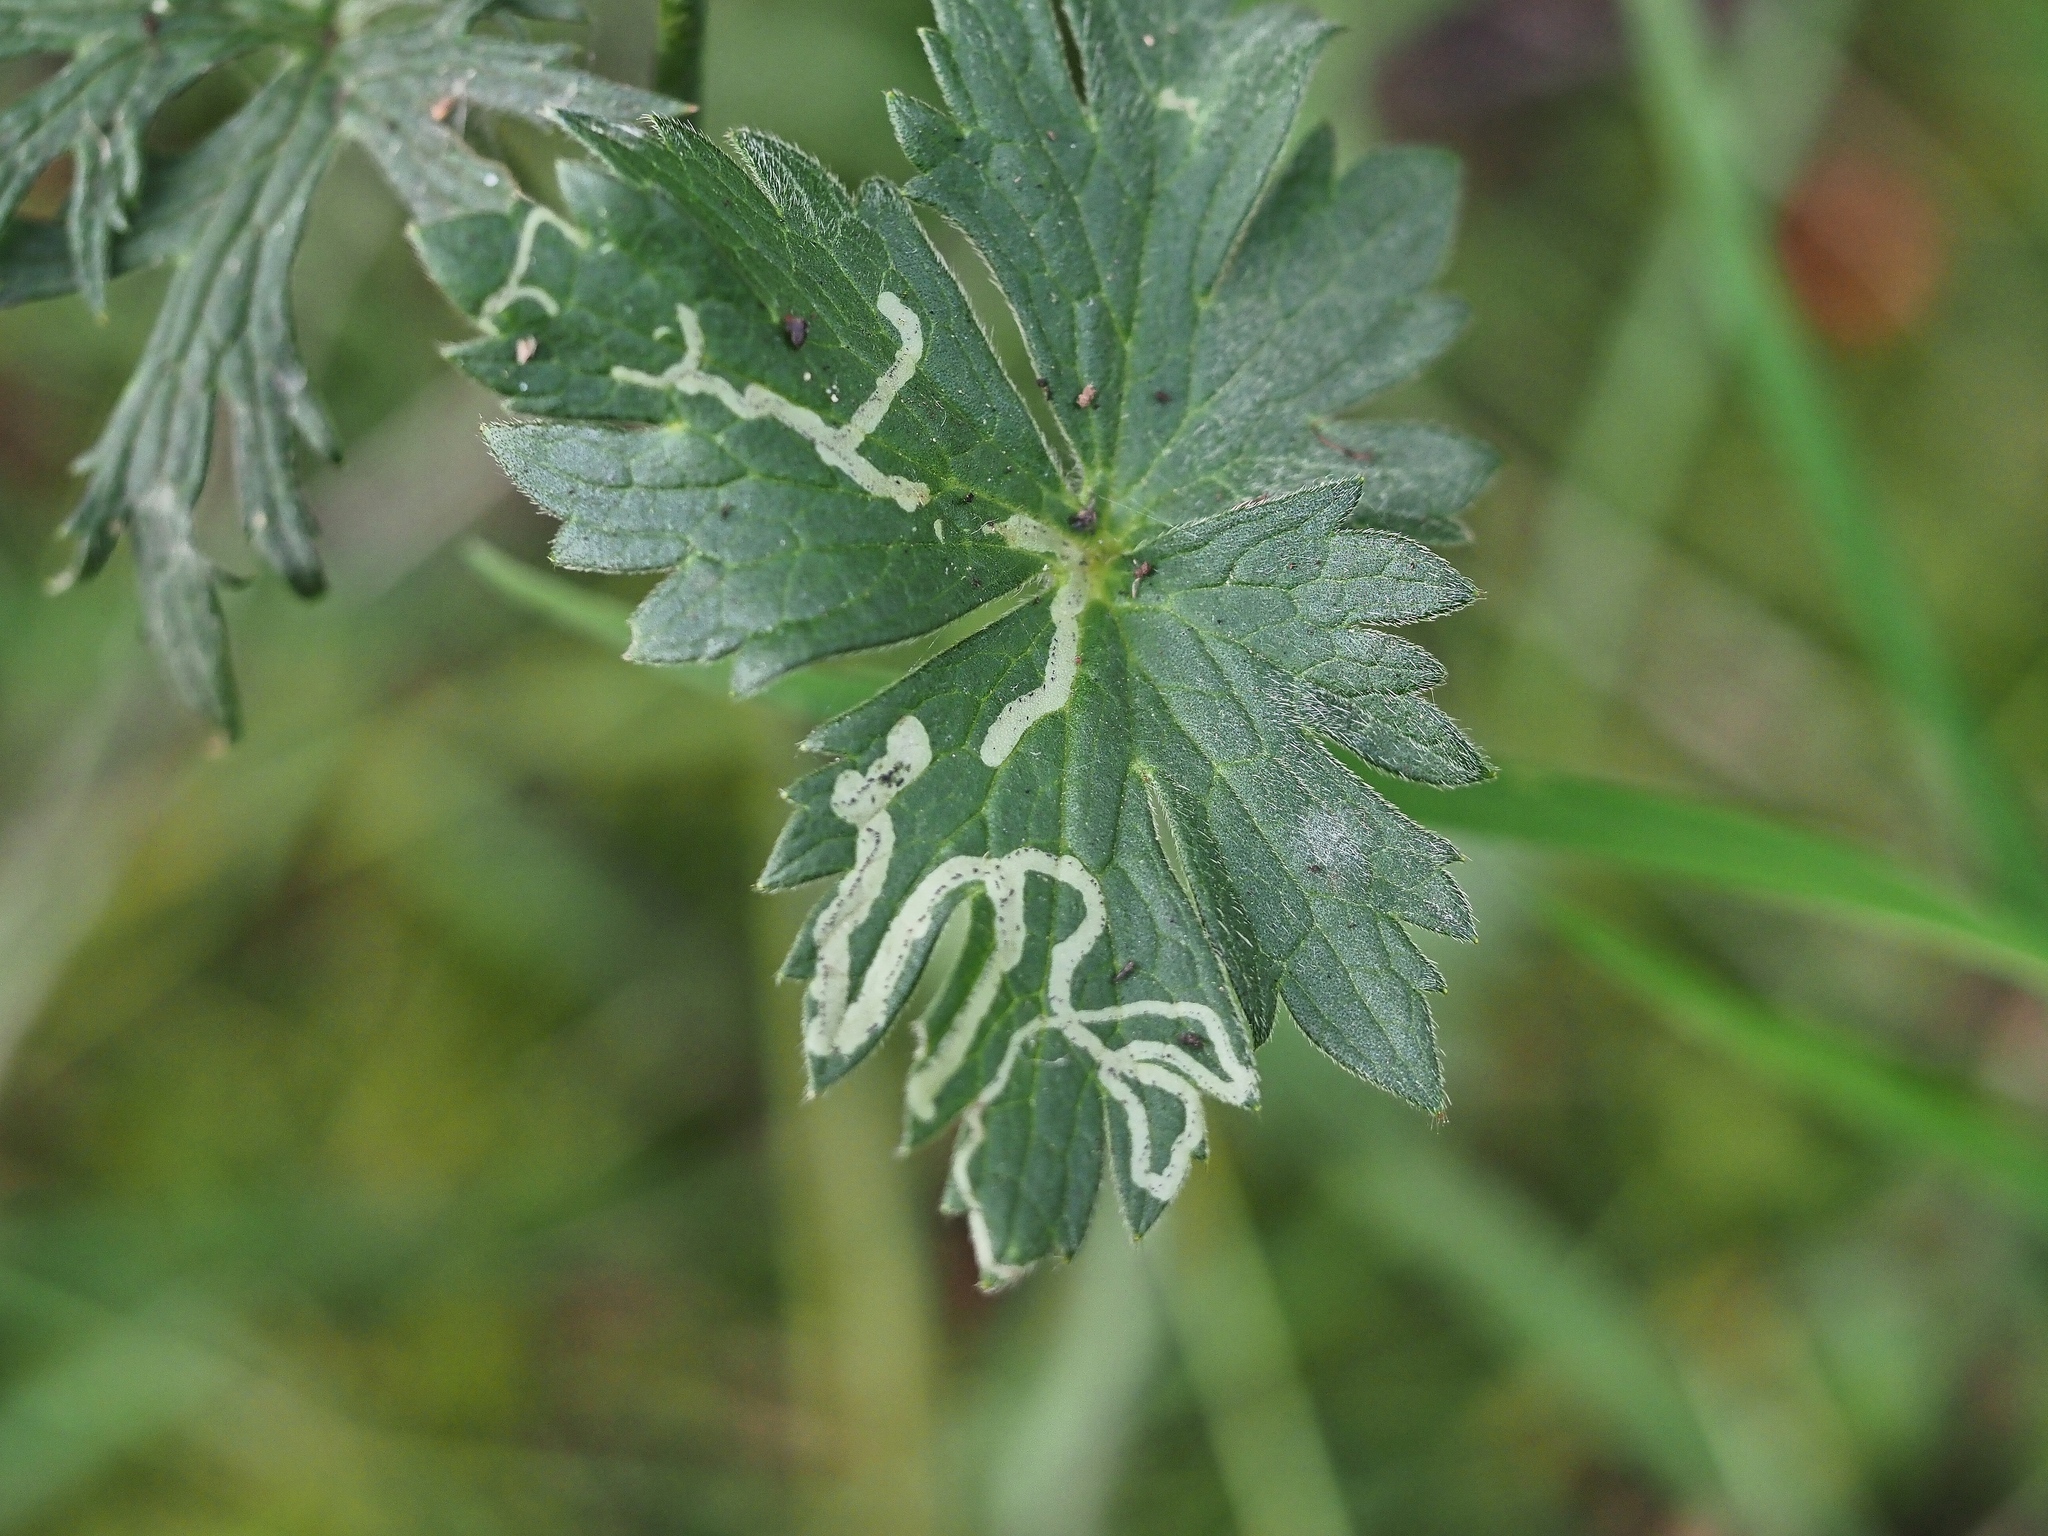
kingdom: Animalia
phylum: Arthropoda
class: Insecta
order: Diptera
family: Agromyzidae
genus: Phytomyza
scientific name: Phytomyza ranunculi
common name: Leaf-miner fly
